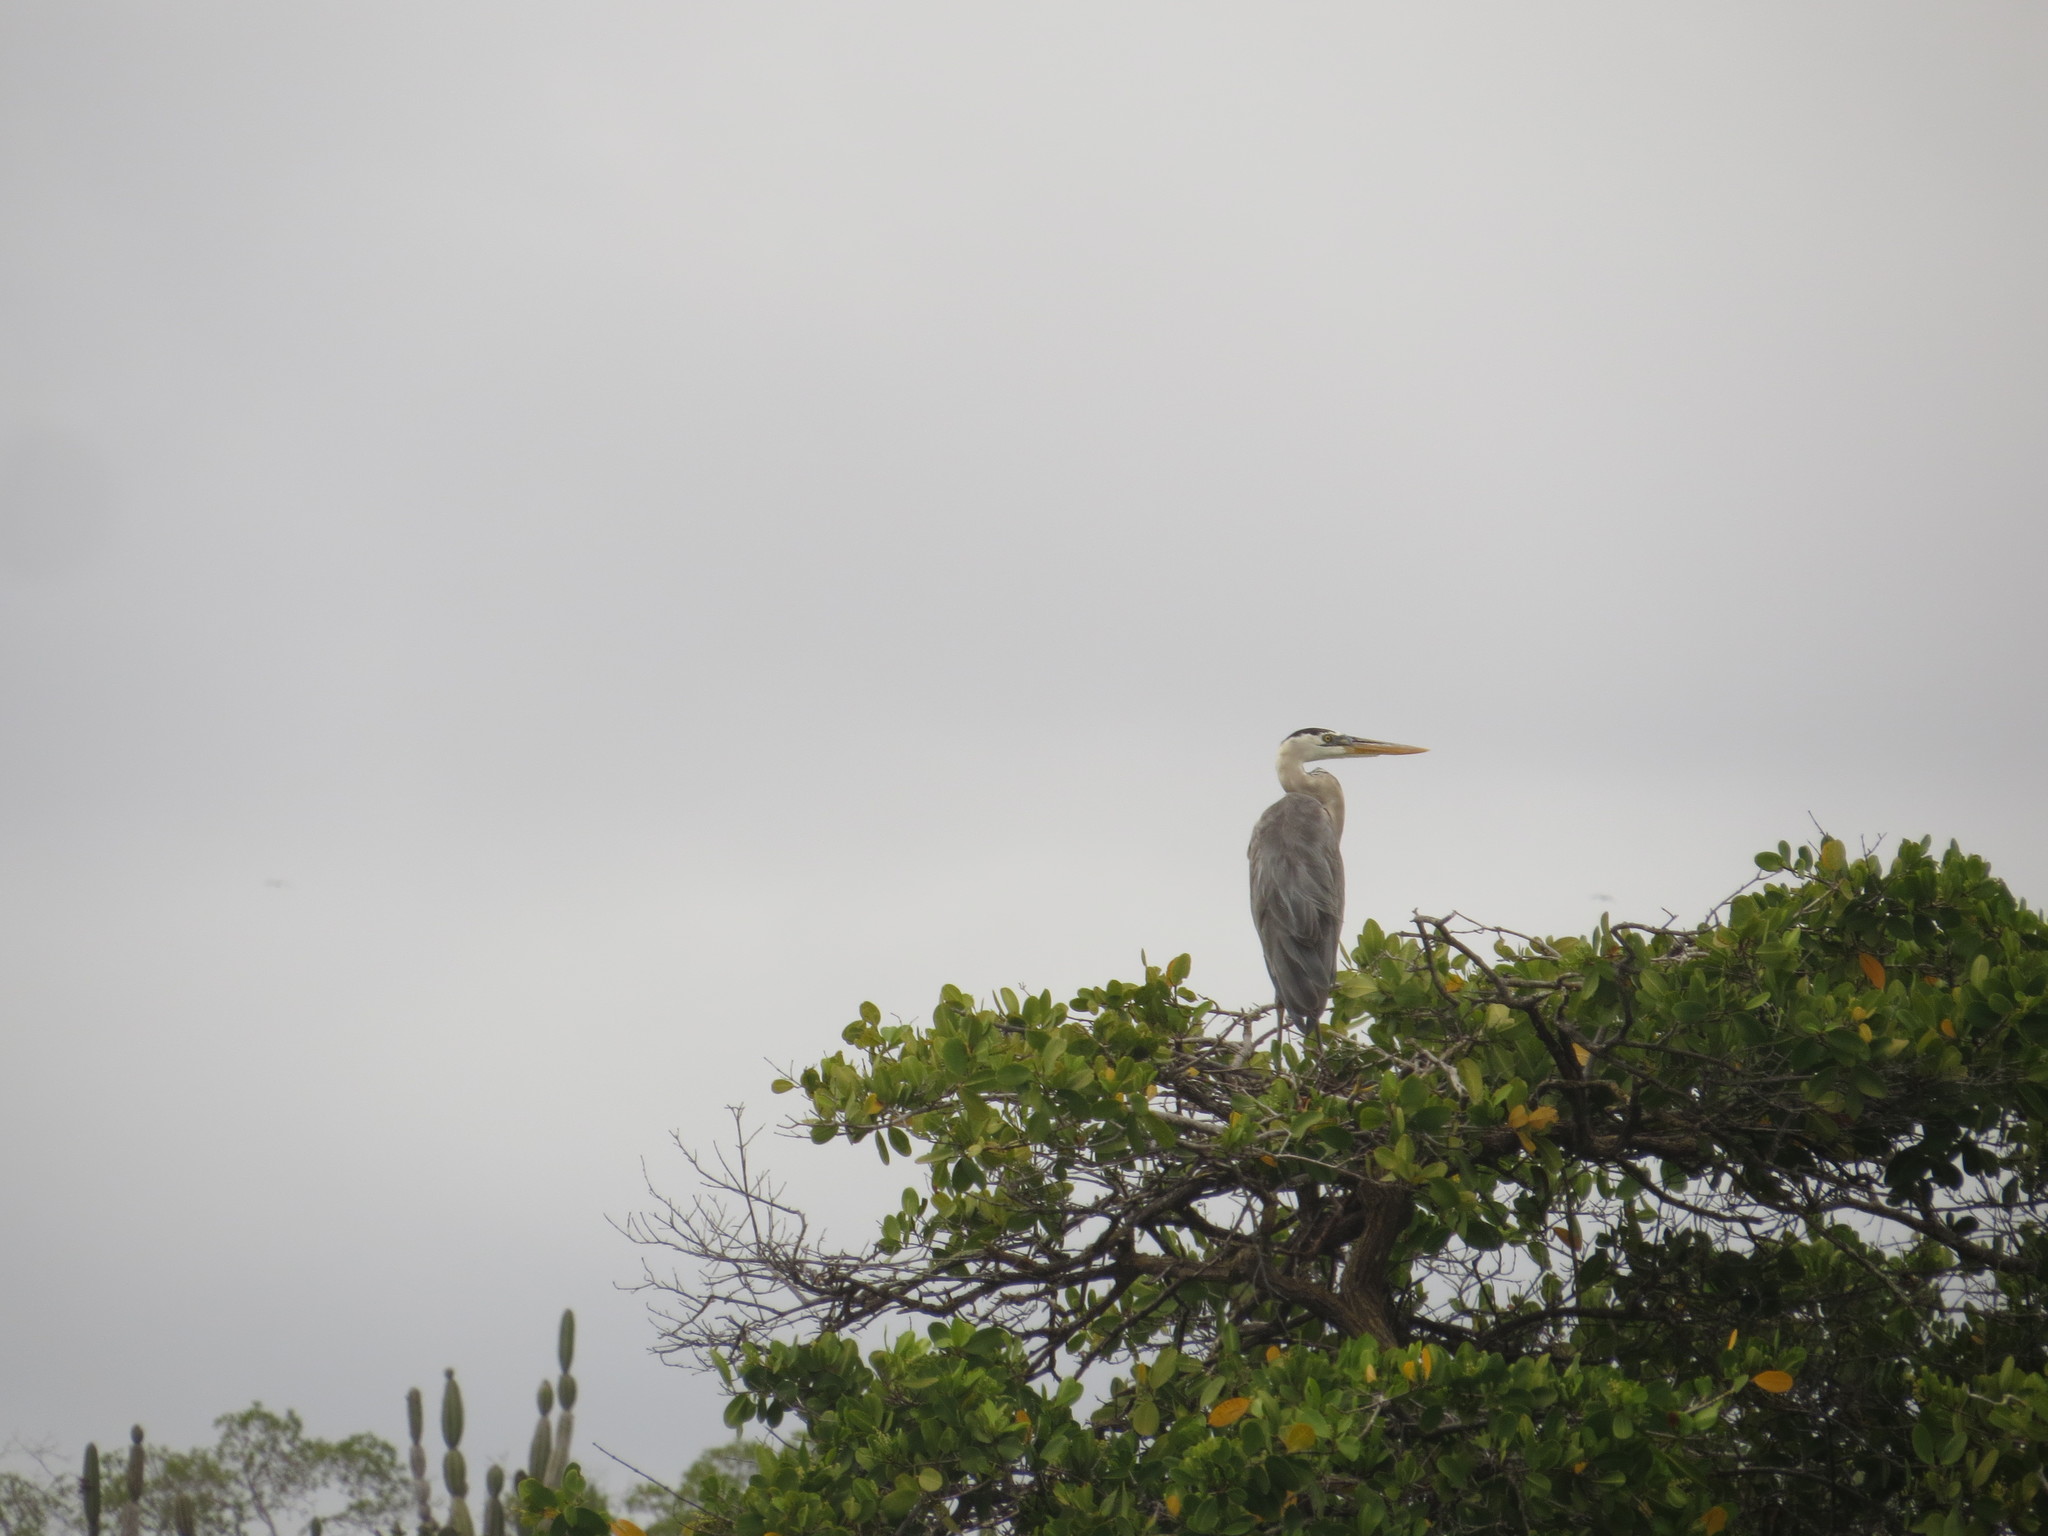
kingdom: Animalia
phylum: Chordata
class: Aves
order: Pelecaniformes
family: Ardeidae
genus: Ardea
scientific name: Ardea herodias
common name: Great blue heron
